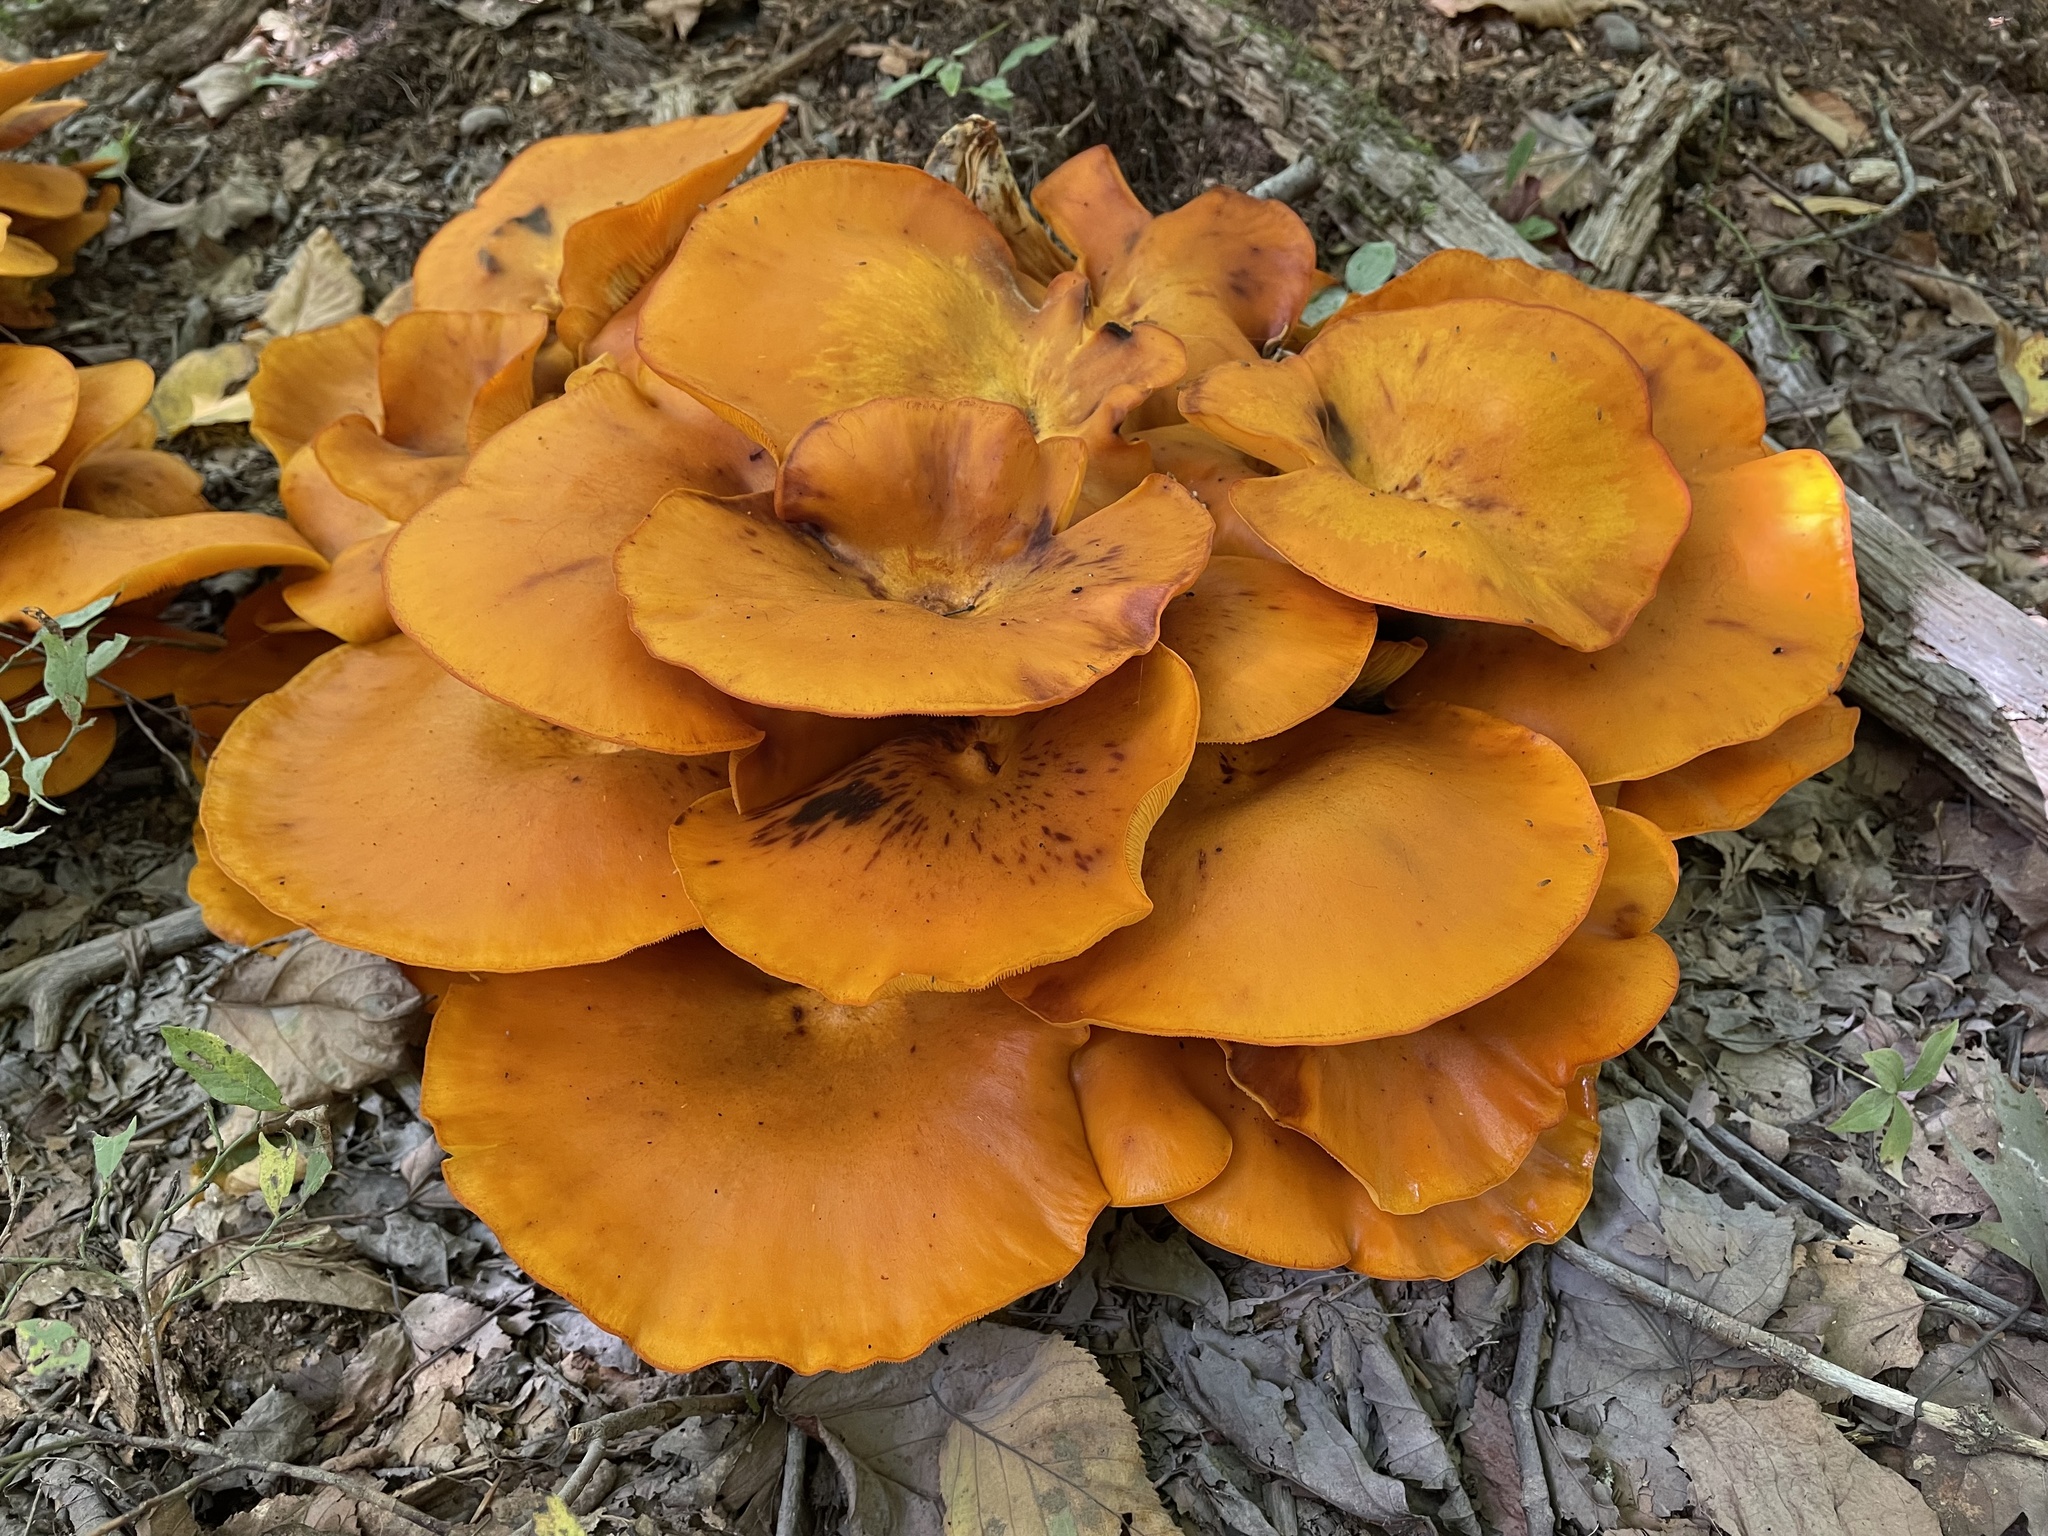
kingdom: Fungi
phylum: Basidiomycota
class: Agaricomycetes
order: Agaricales
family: Omphalotaceae
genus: Omphalotus
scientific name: Omphalotus illudens
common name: Jack o lantern
